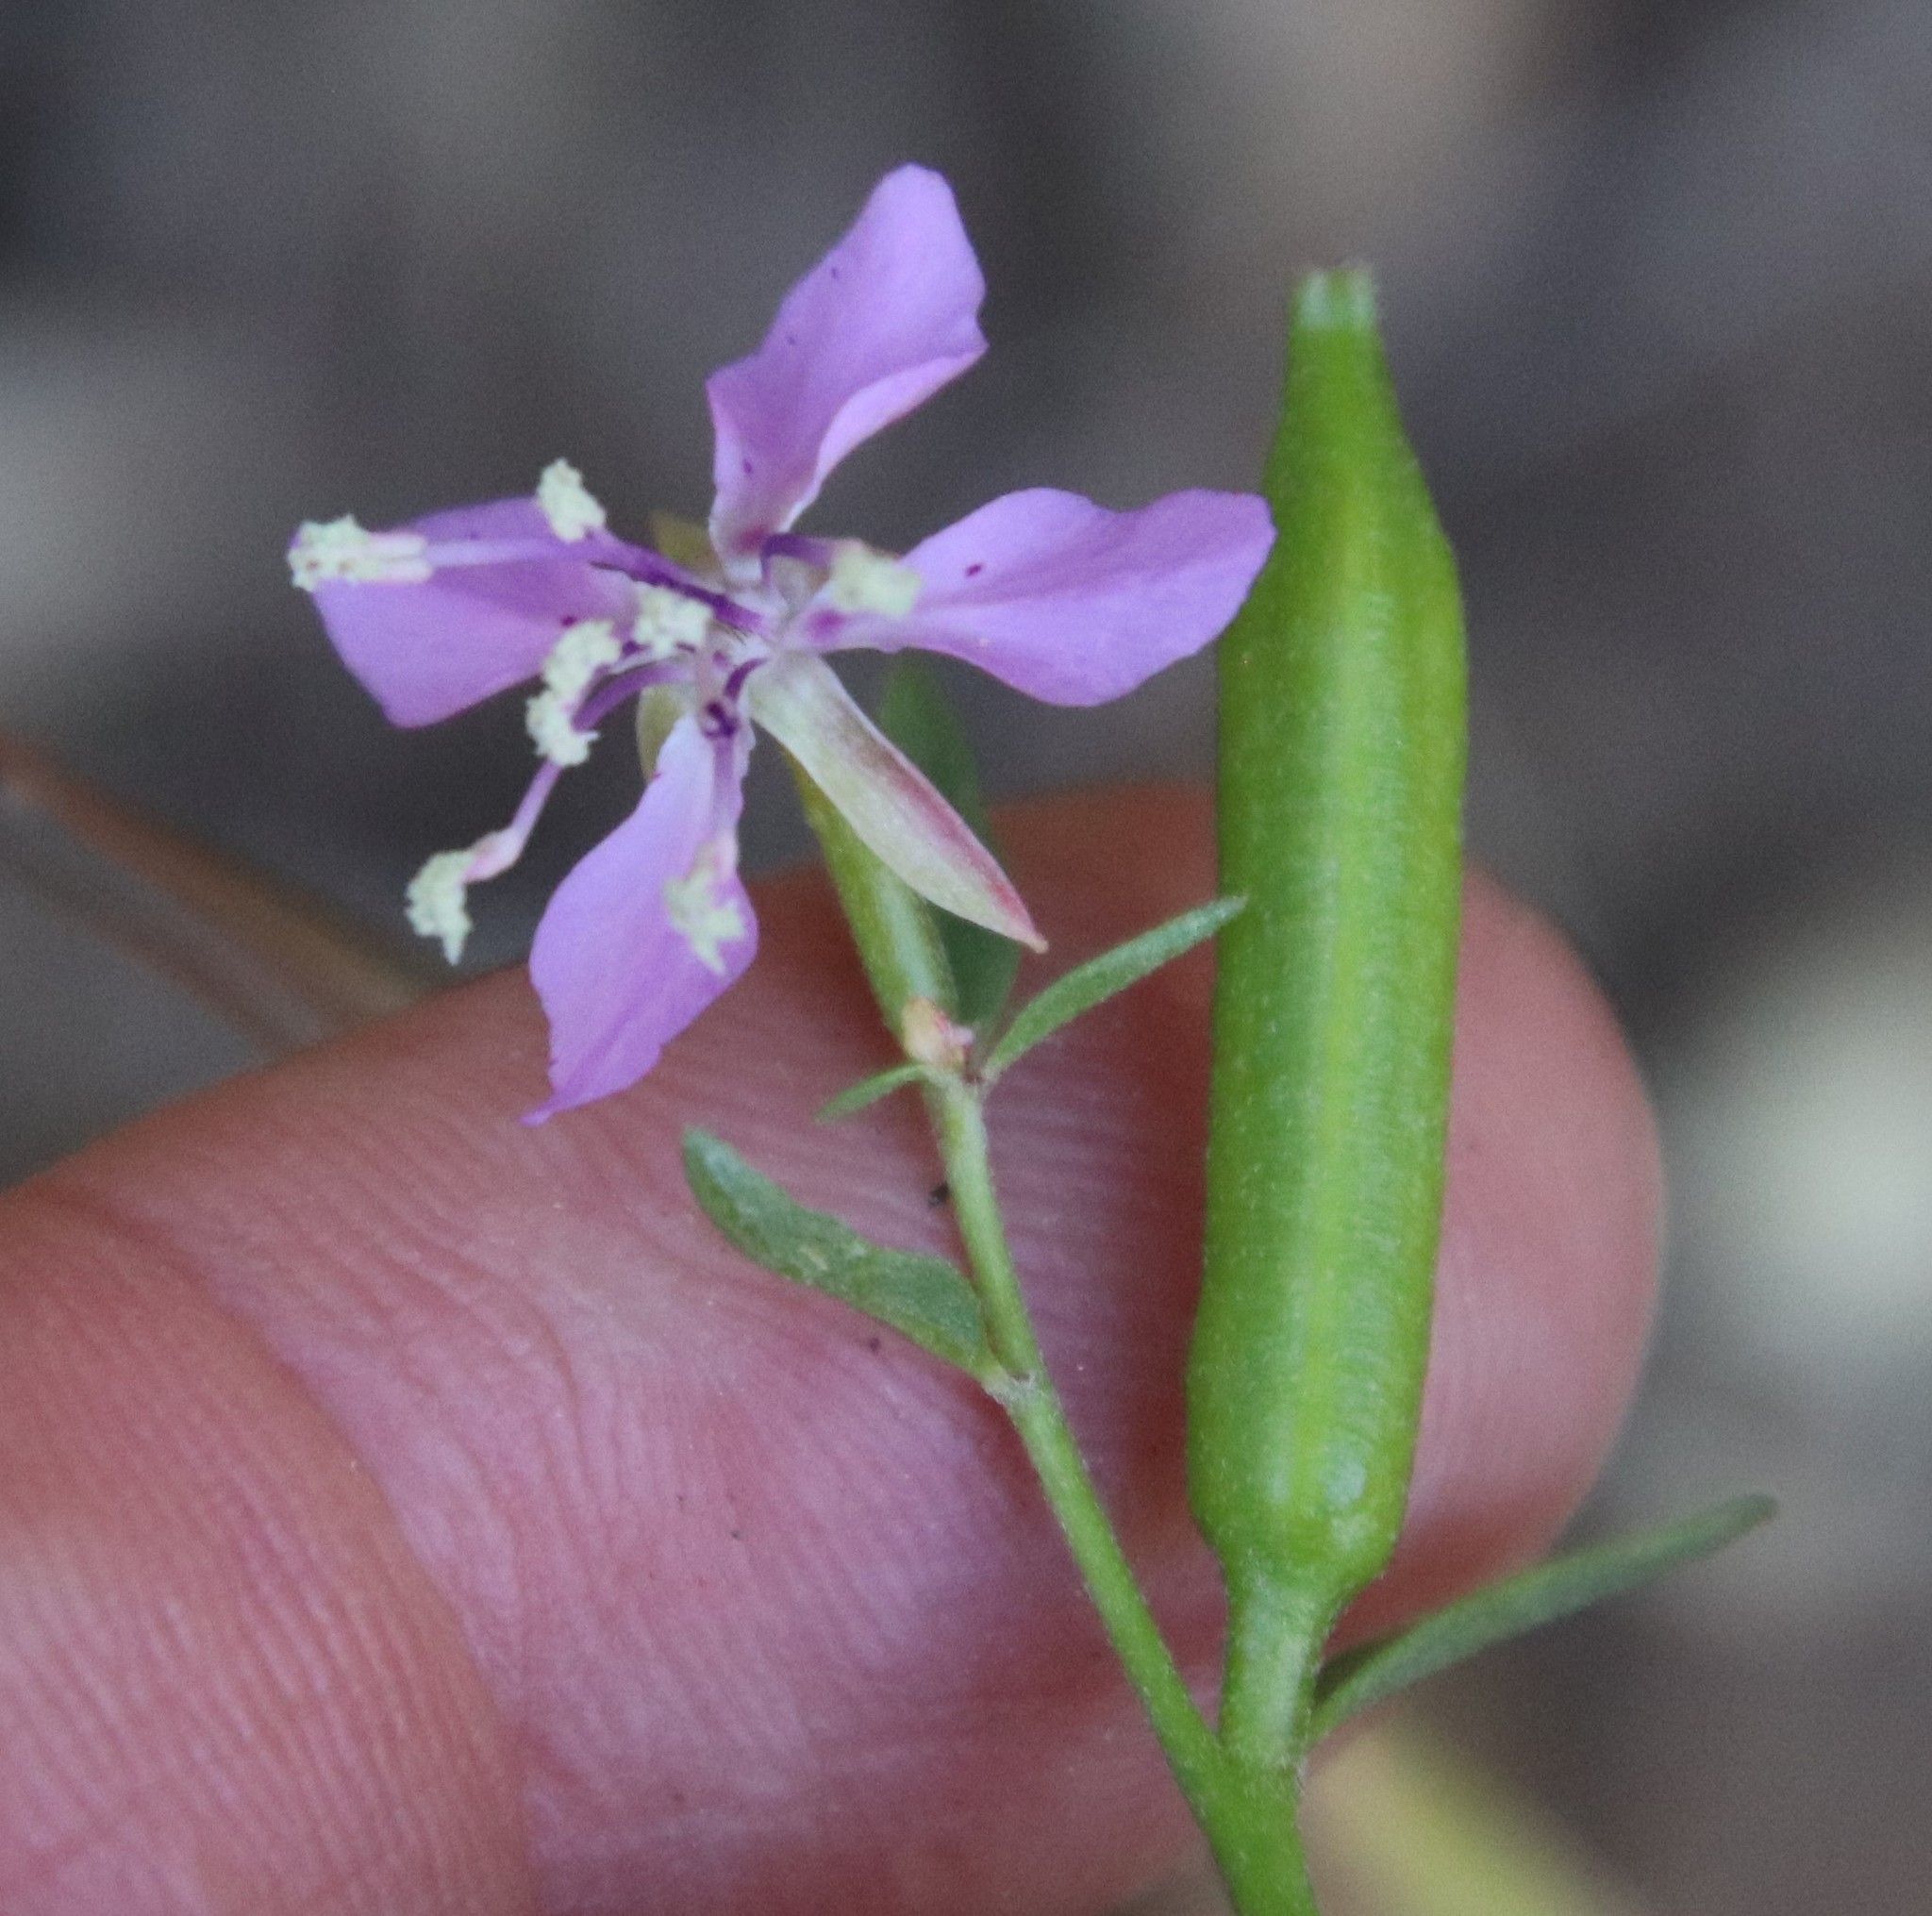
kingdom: Plantae
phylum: Tracheophyta
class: Magnoliopsida
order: Myrtales
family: Onagraceae
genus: Clarkia
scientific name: Clarkia rhomboidea
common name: Broadleaf clarkia
